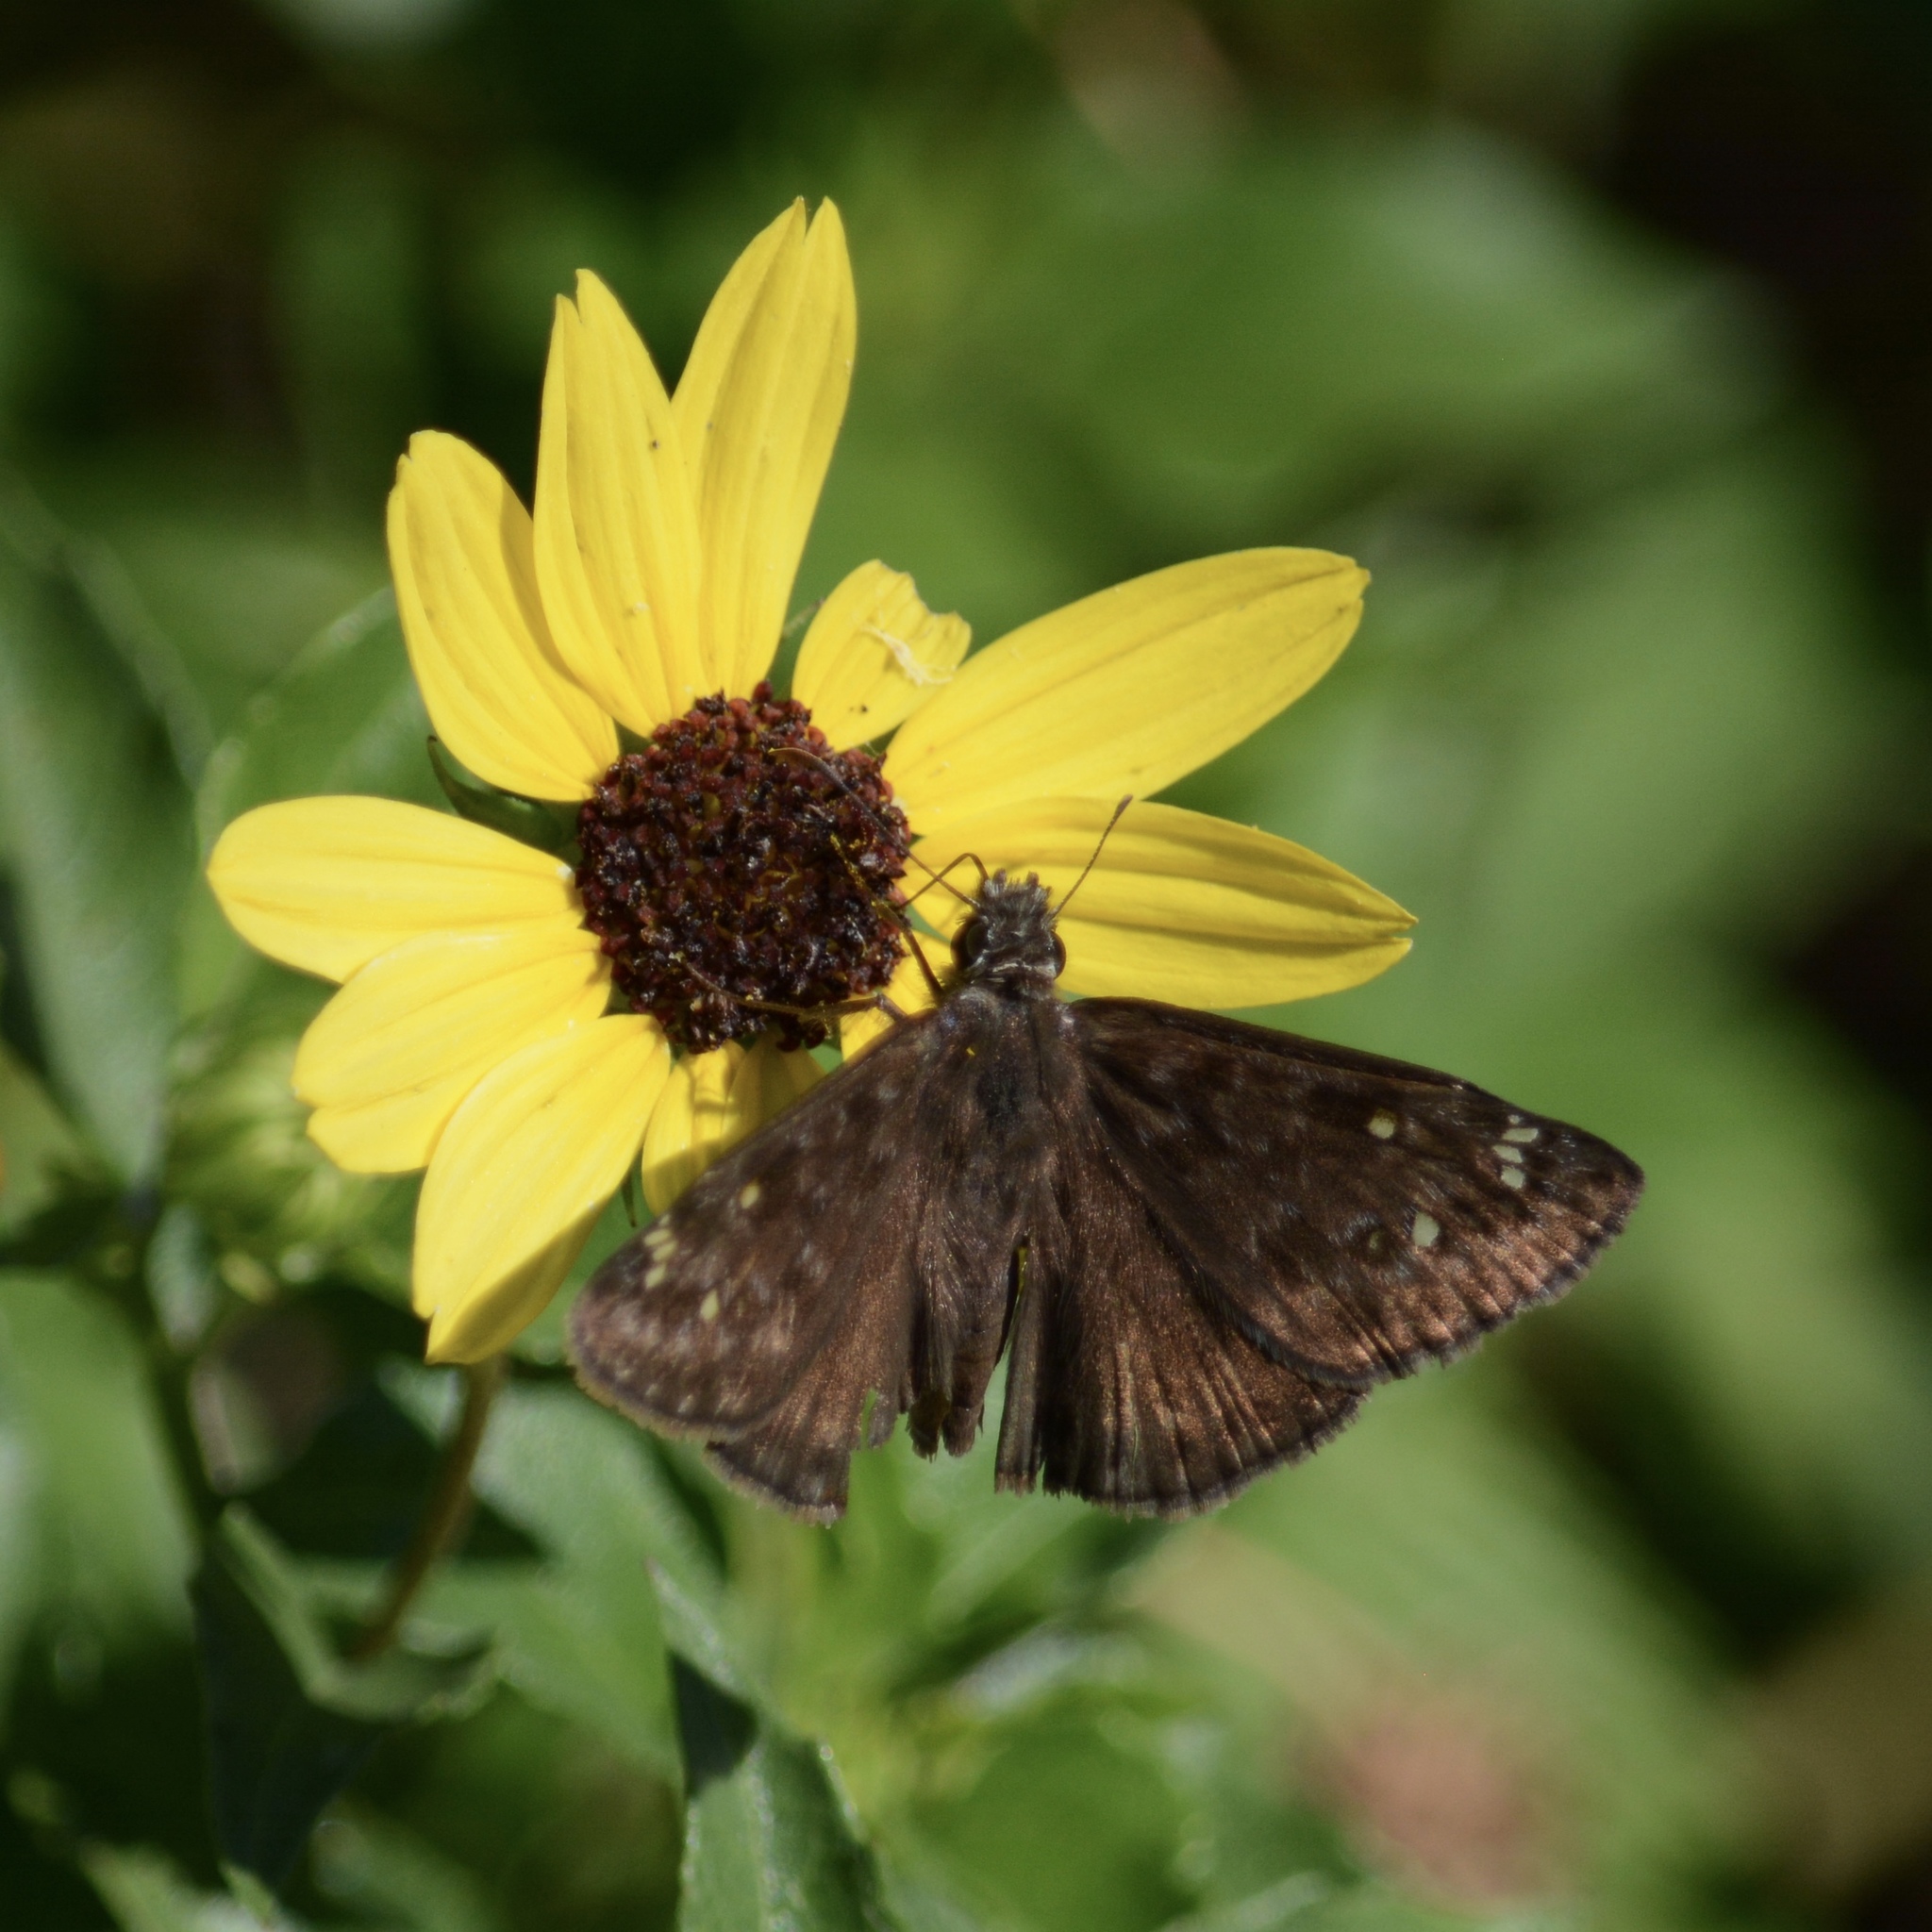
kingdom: Animalia
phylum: Arthropoda
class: Insecta
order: Lepidoptera
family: Hesperiidae
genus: Erynnis
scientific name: Erynnis horatius
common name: Horace's duskywing
